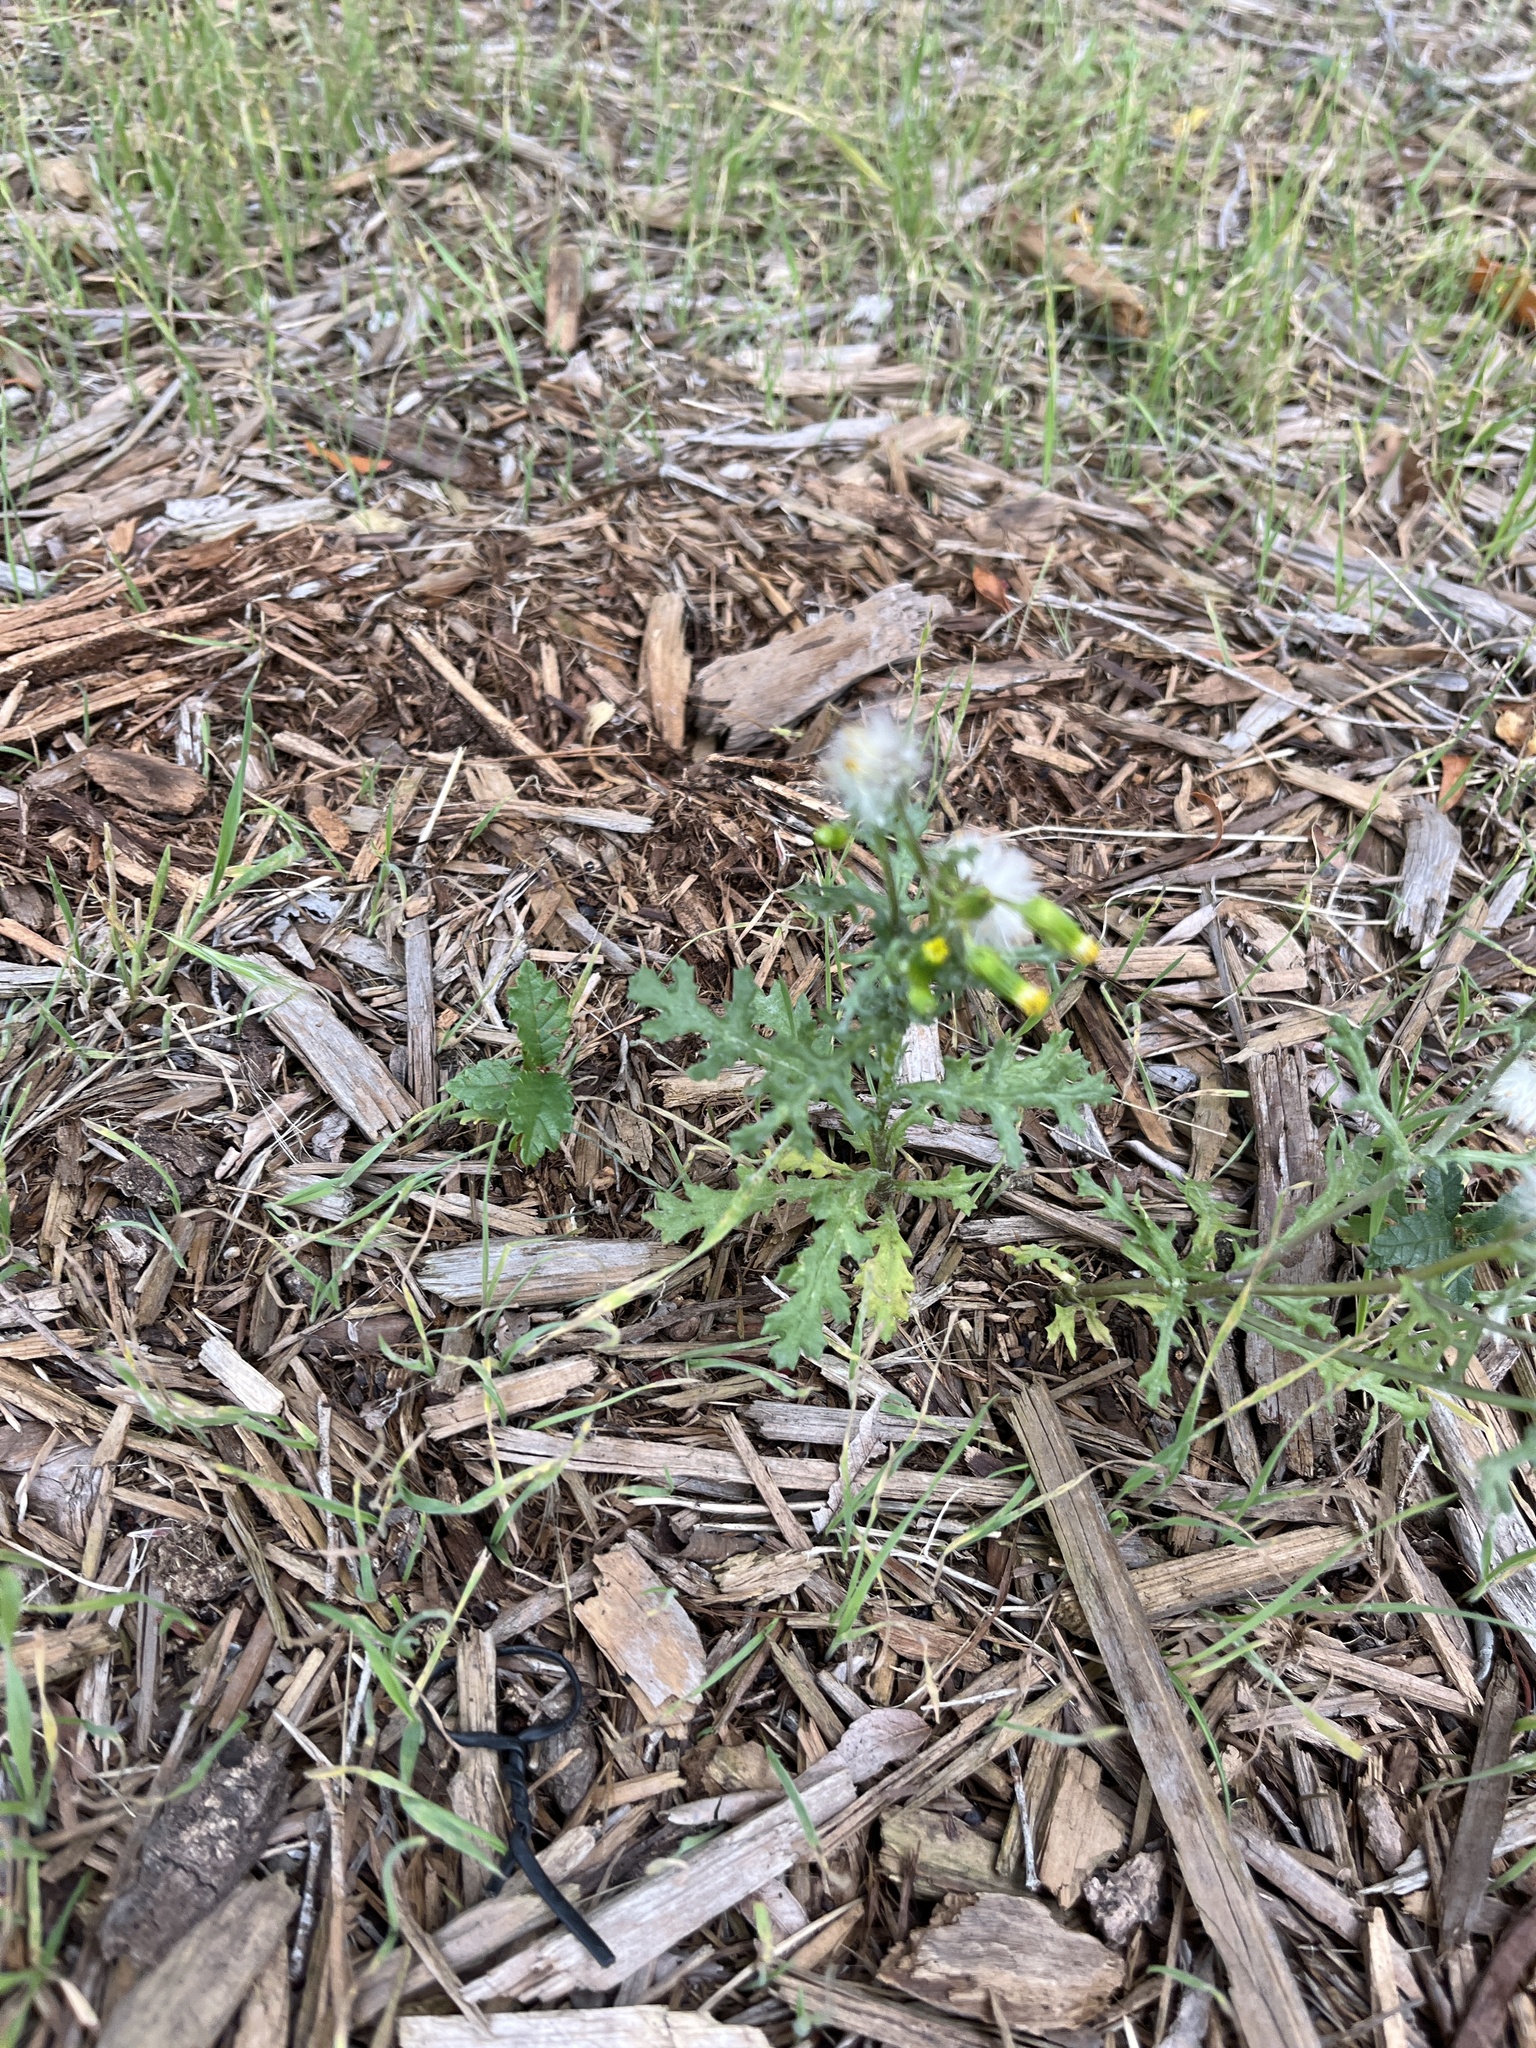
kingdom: Plantae
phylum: Tracheophyta
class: Magnoliopsida
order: Asterales
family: Asteraceae
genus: Senecio
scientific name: Senecio vulgaris
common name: Old-man-in-the-spring
